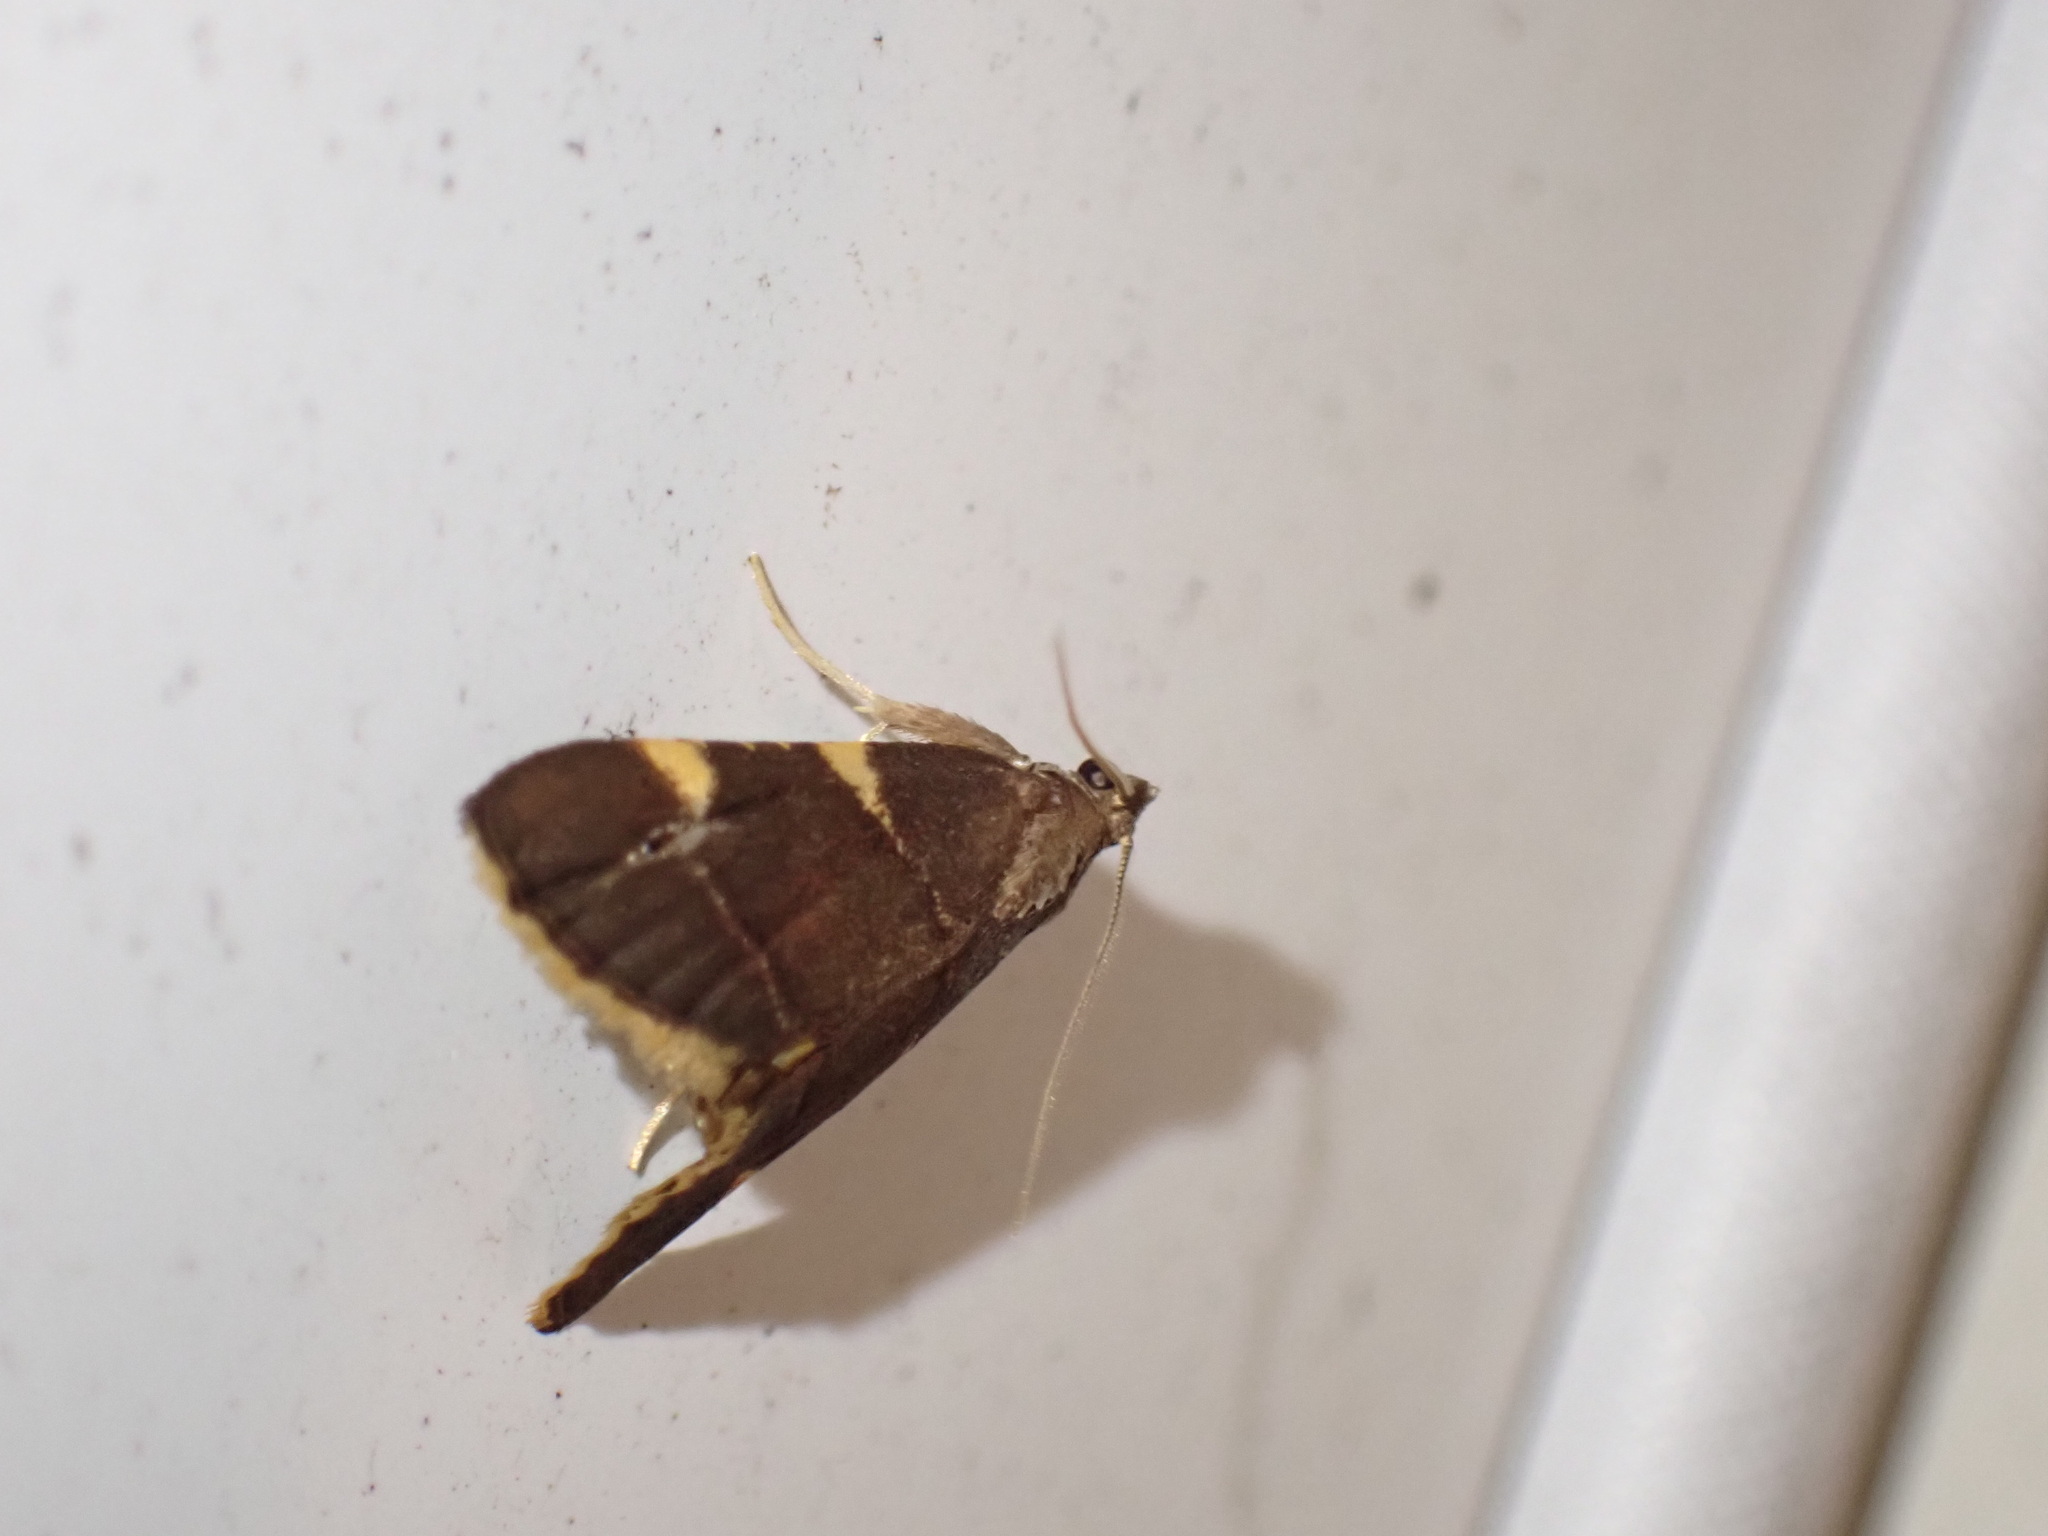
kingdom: Animalia
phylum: Arthropoda
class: Insecta
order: Lepidoptera
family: Pyralidae
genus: Hypsopygia
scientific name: Hypsopygia olinalis
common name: Yellow-fringed dolichomia moth
